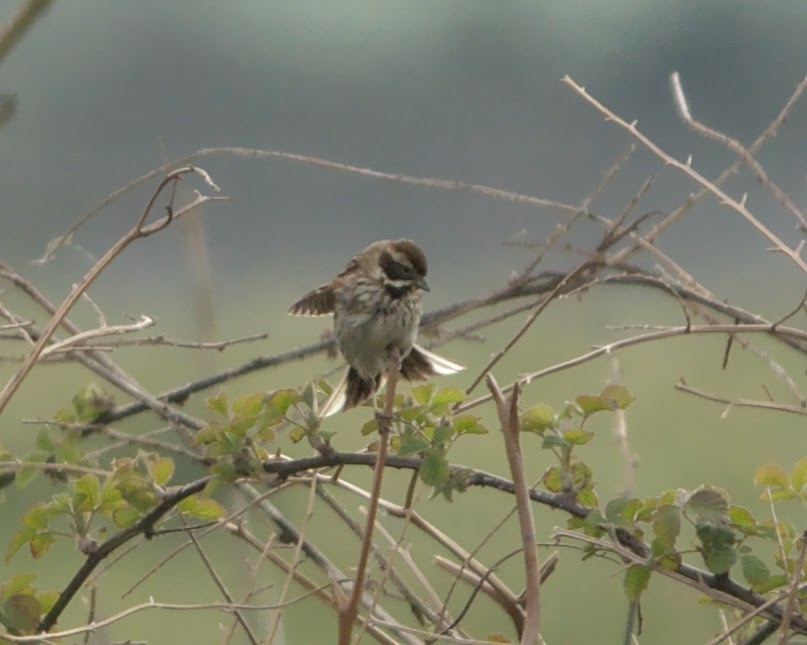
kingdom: Animalia
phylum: Chordata
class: Aves
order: Passeriformes
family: Emberizidae
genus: Emberiza
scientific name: Emberiza schoeniclus
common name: Reed bunting
